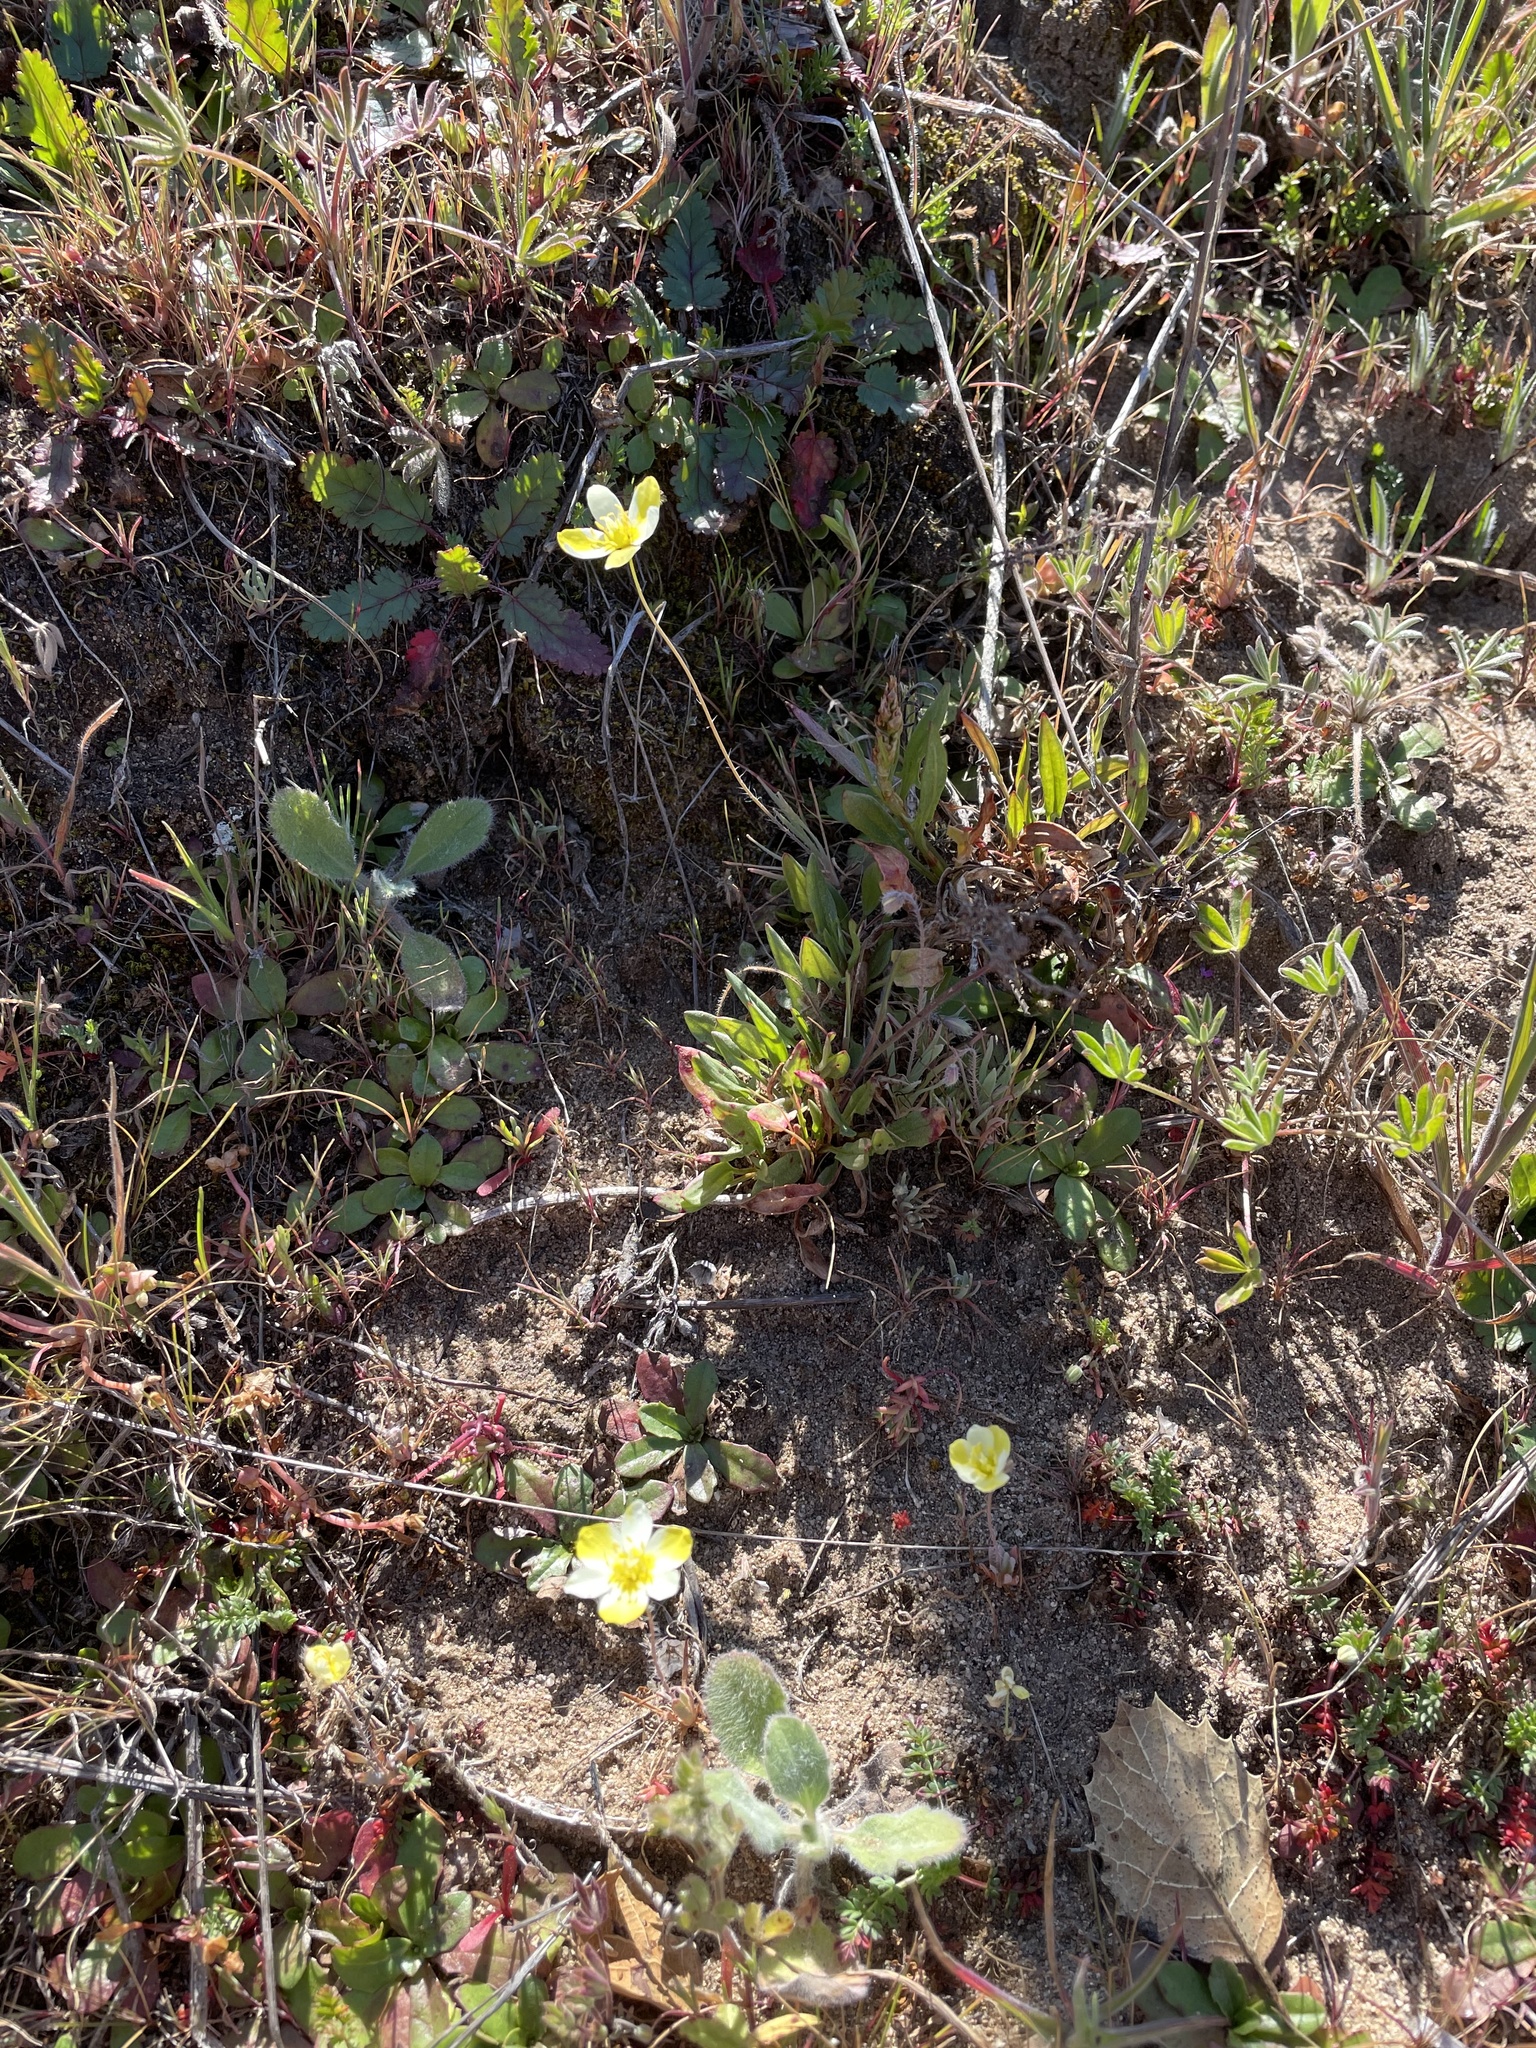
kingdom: Plantae
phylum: Tracheophyta
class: Magnoliopsida
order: Ranunculales
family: Papaveraceae
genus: Platystigma
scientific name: Platystigma lineare
